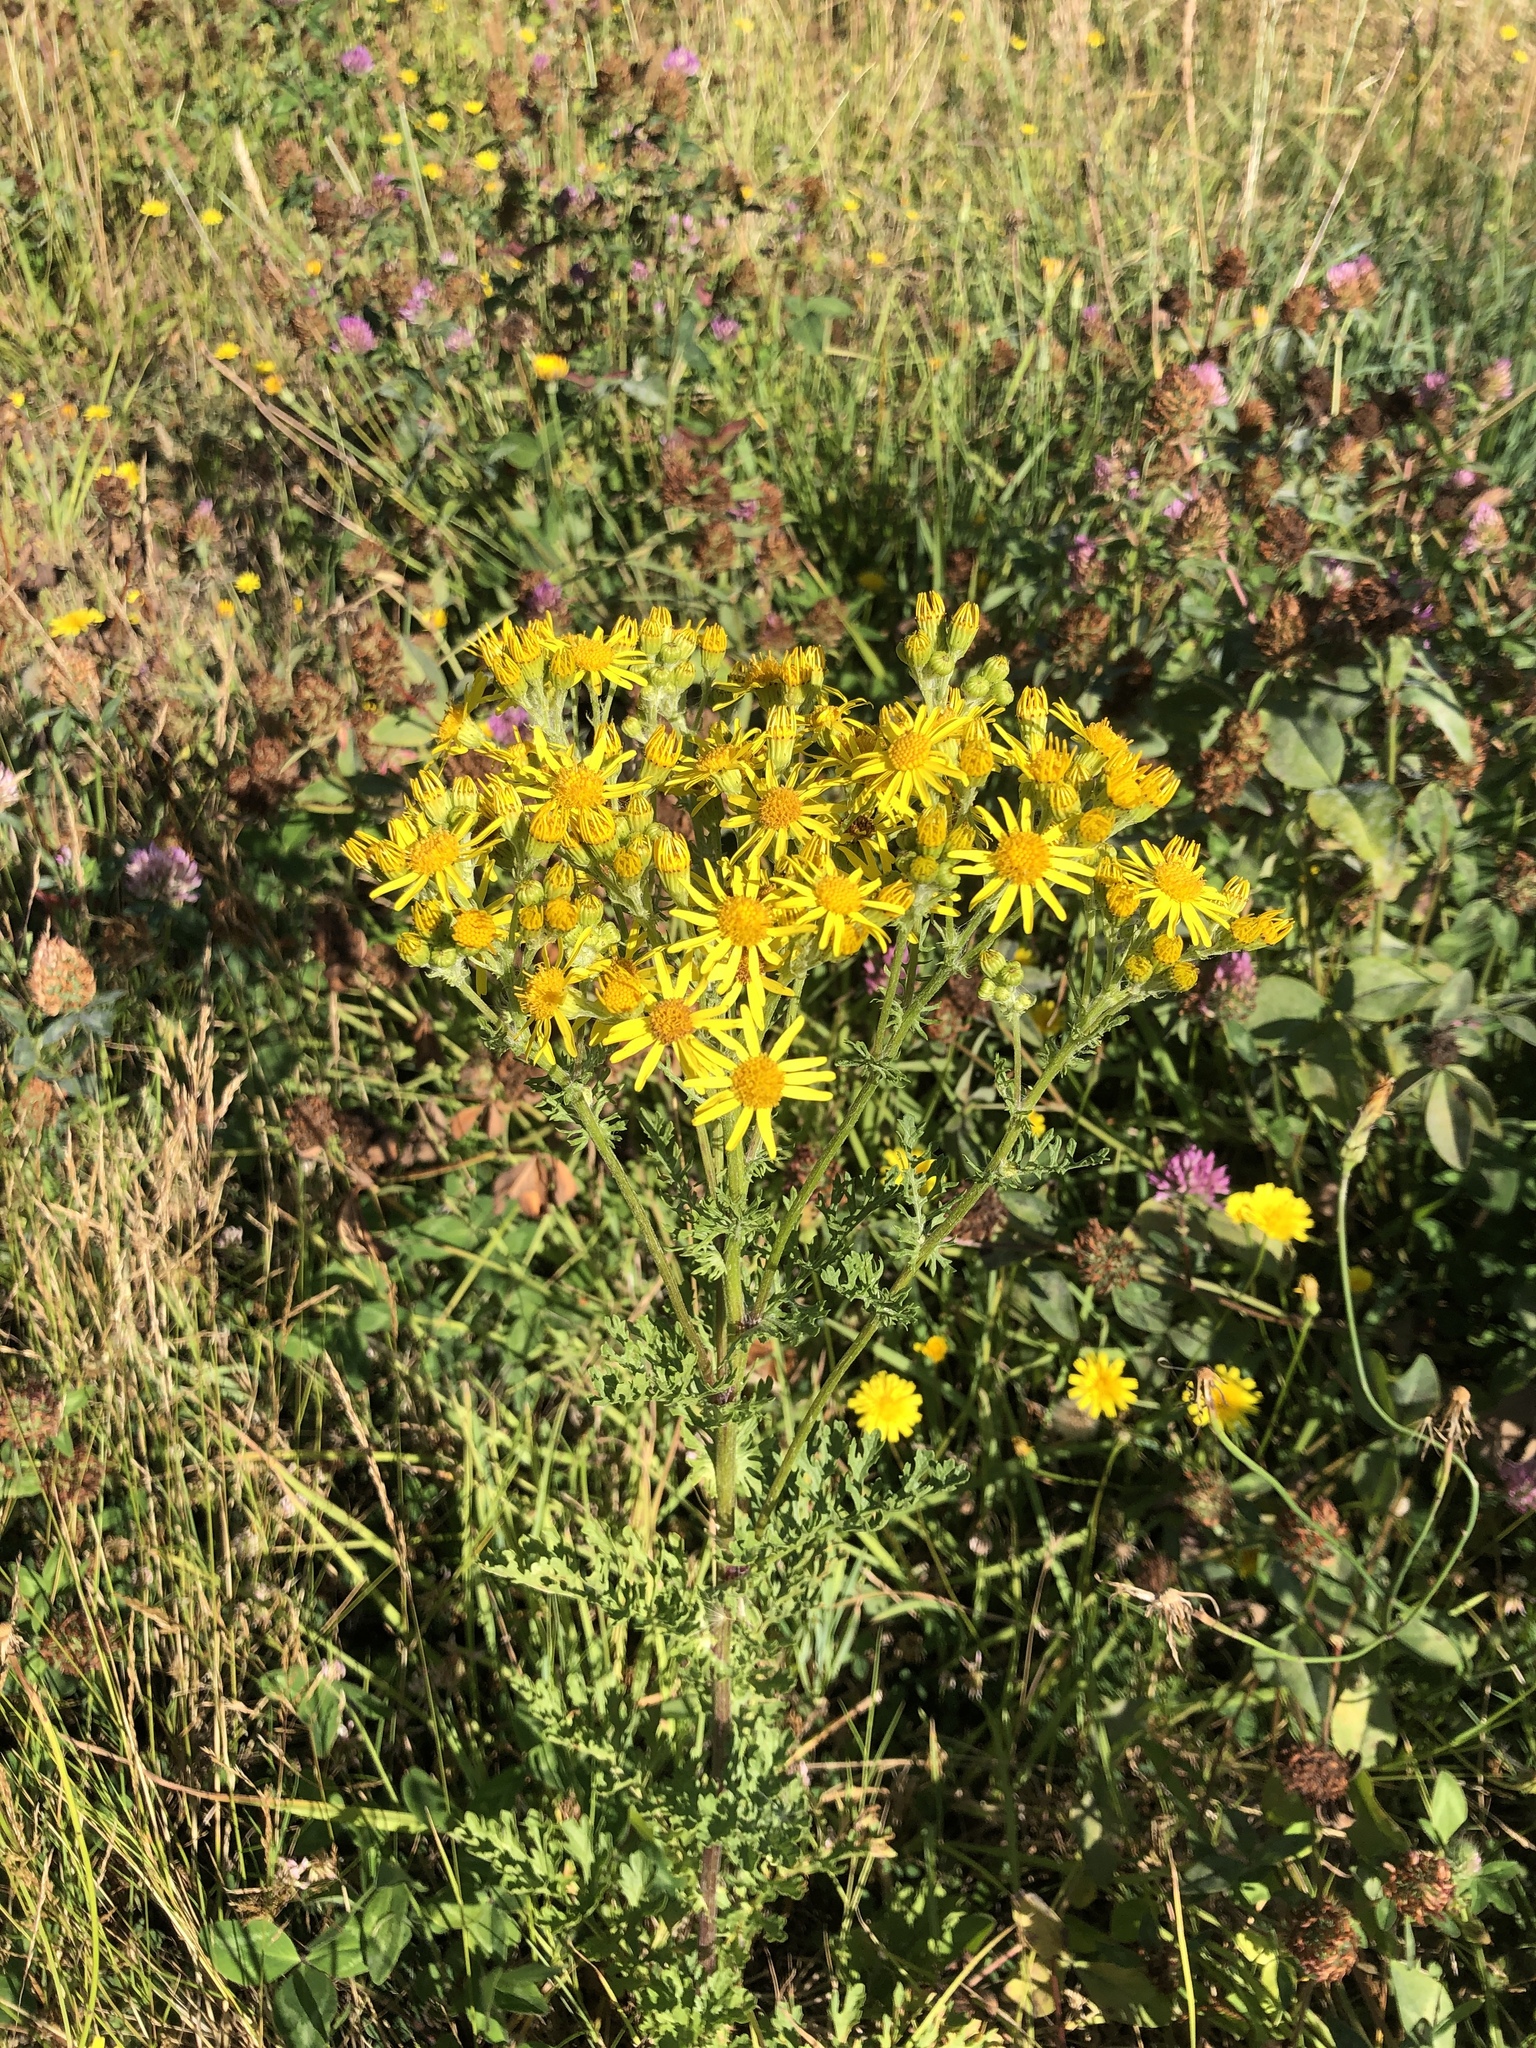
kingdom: Plantae
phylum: Tracheophyta
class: Magnoliopsida
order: Asterales
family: Asteraceae
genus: Jacobaea
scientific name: Jacobaea vulgaris
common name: Stinking willie
